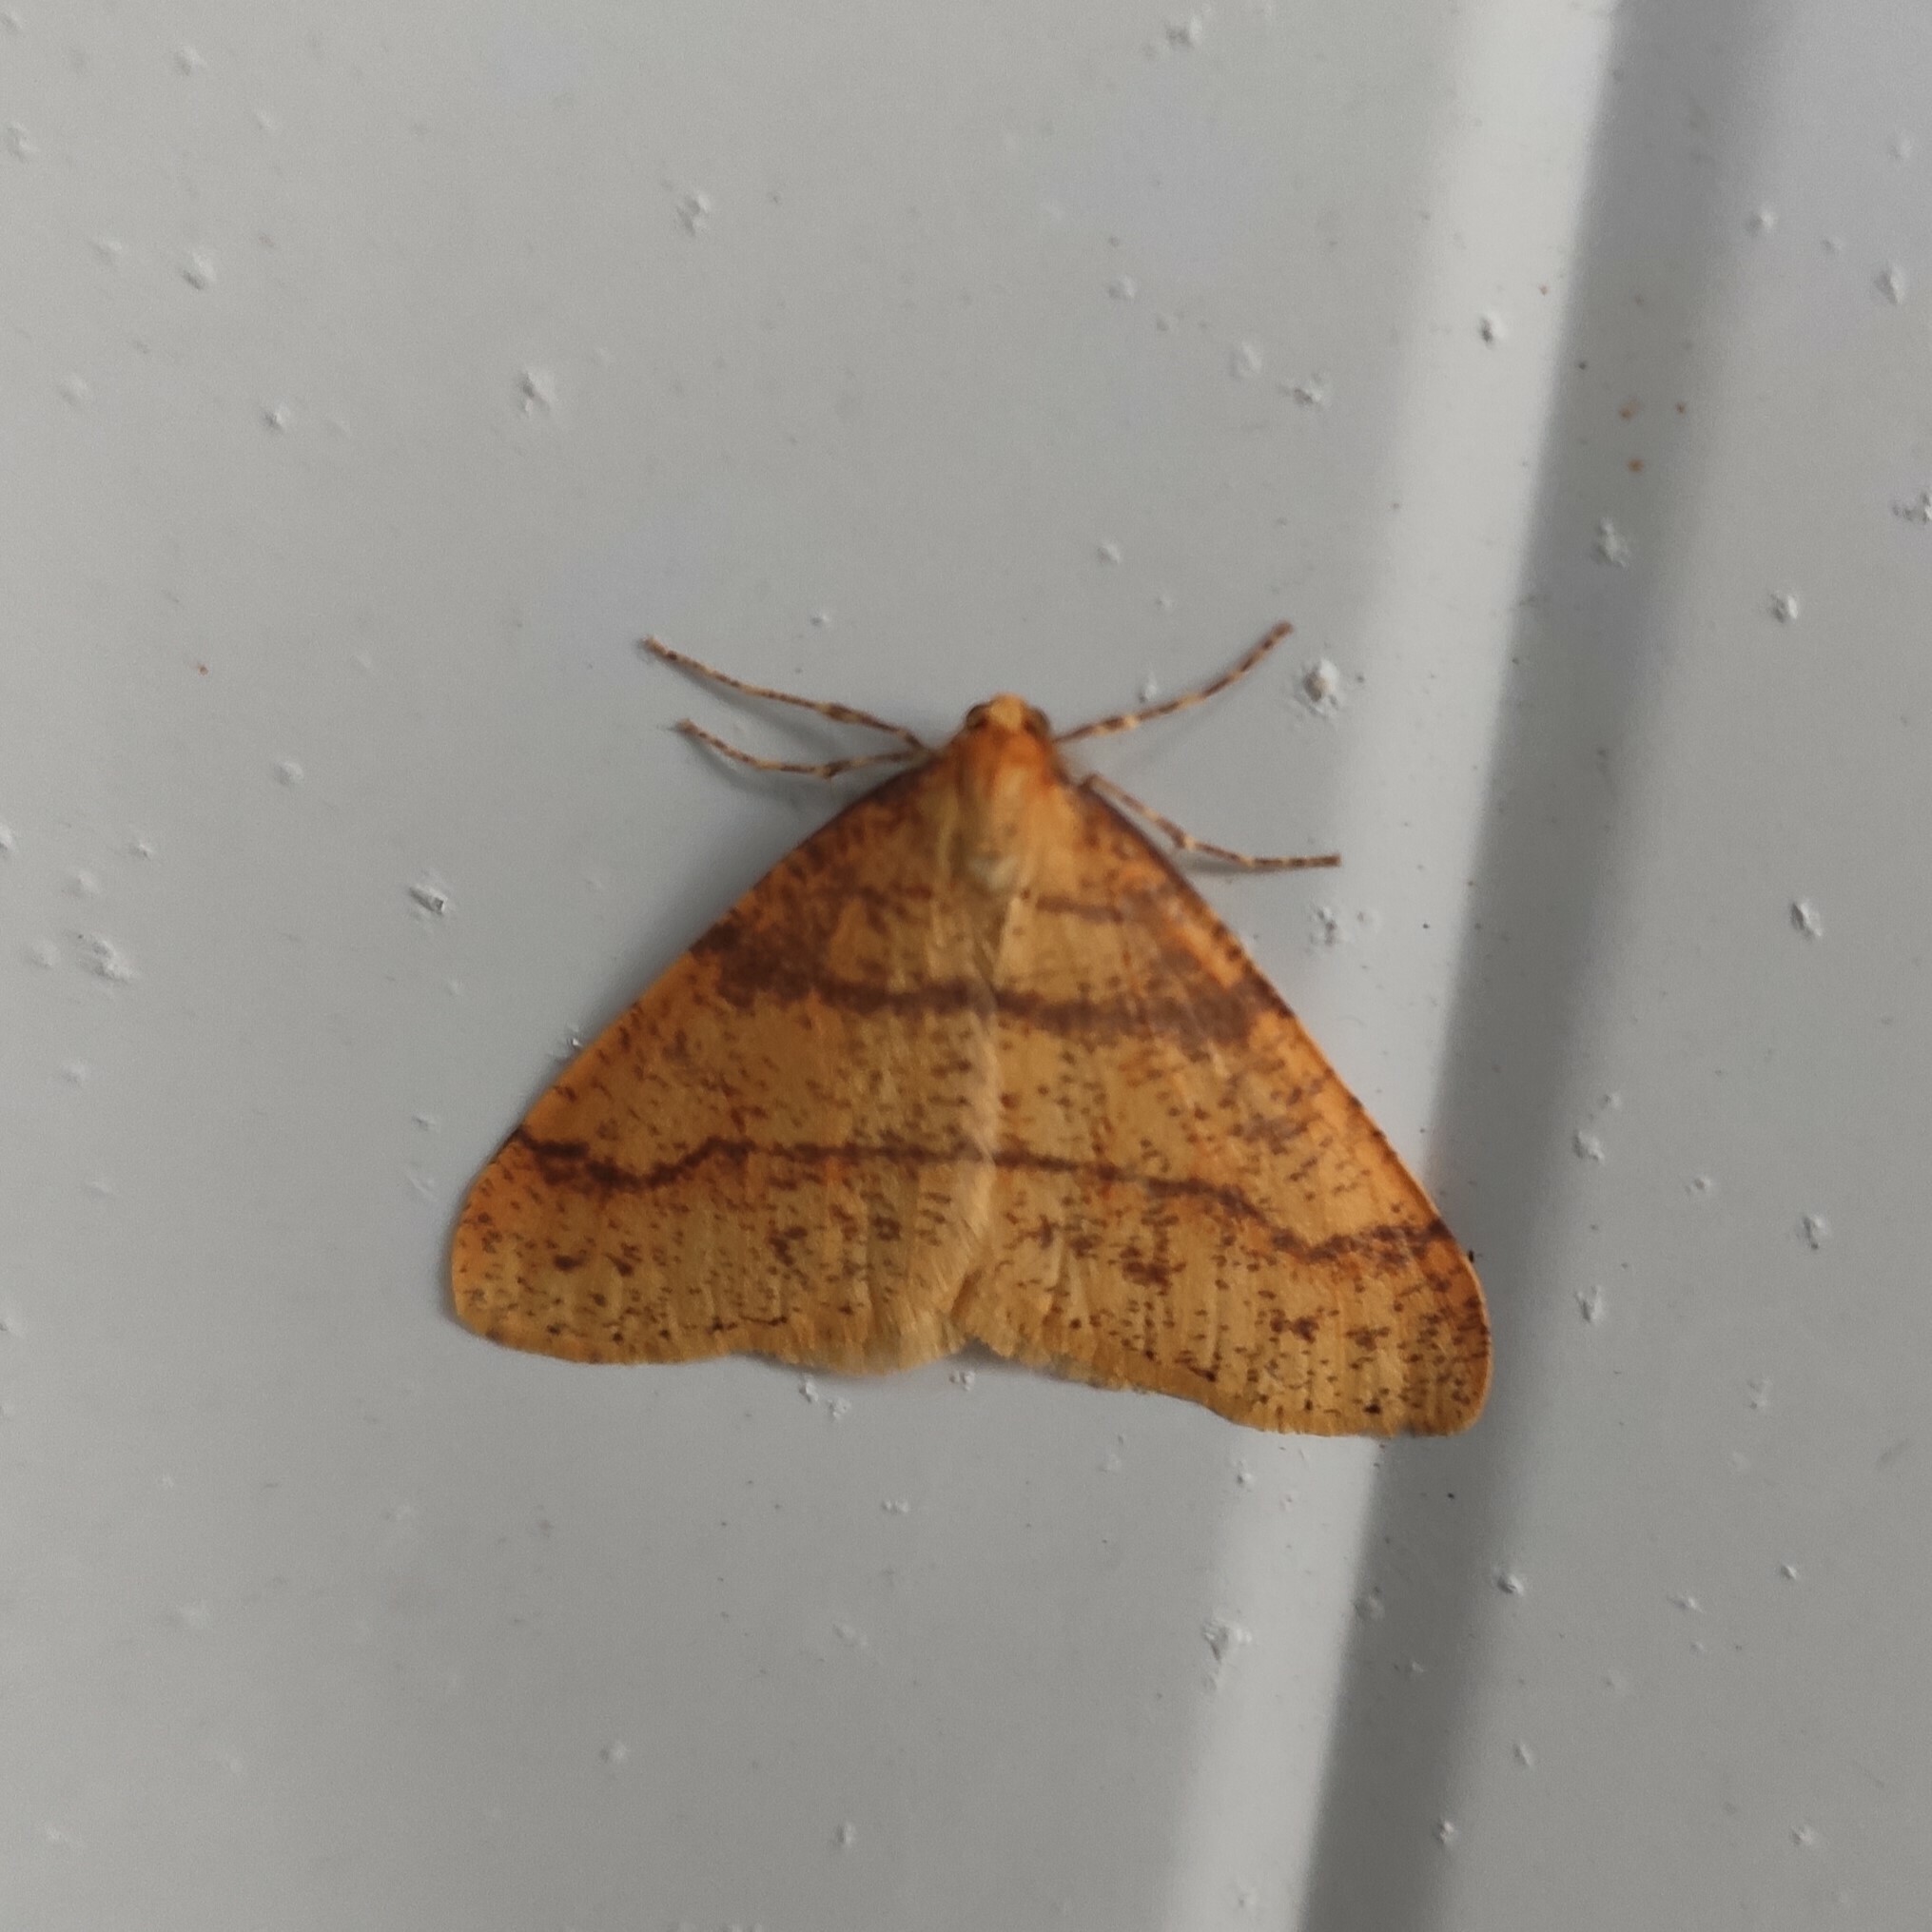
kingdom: Animalia
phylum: Arthropoda
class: Insecta
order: Lepidoptera
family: Geometridae
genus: Agriopis
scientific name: Agriopis aurantiaria
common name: Scarce umber
